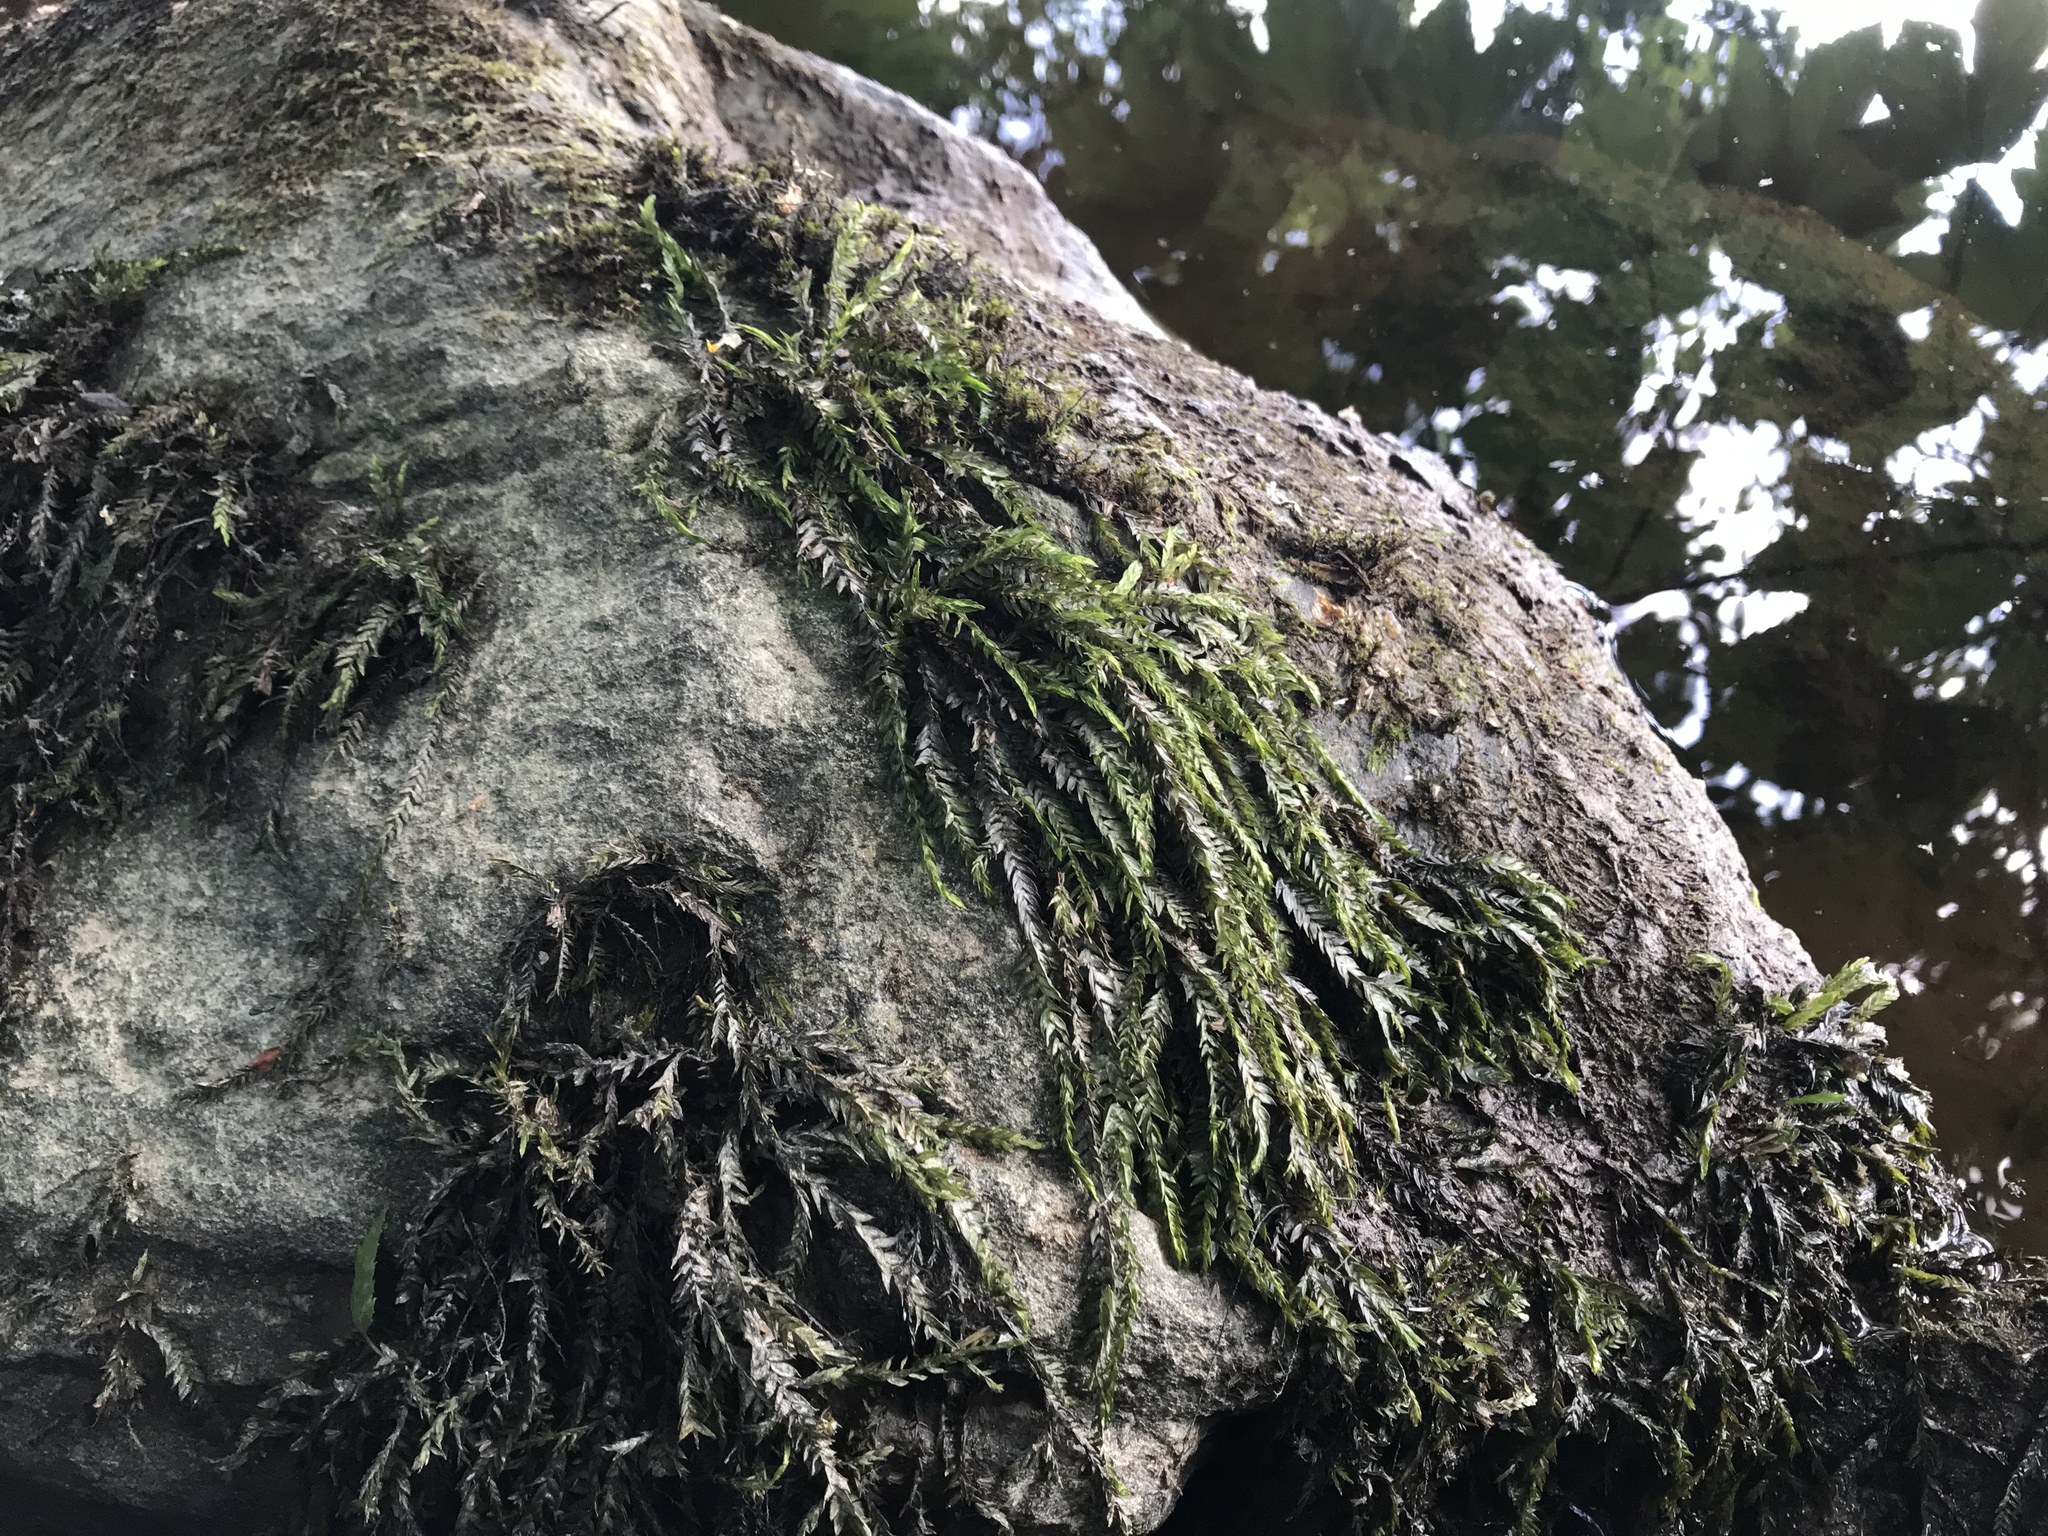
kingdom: Plantae
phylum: Bryophyta
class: Bryopsida
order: Hypnales
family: Fontinalaceae
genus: Fontinalis
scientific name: Fontinalis antipyretica
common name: Greater water-moss
